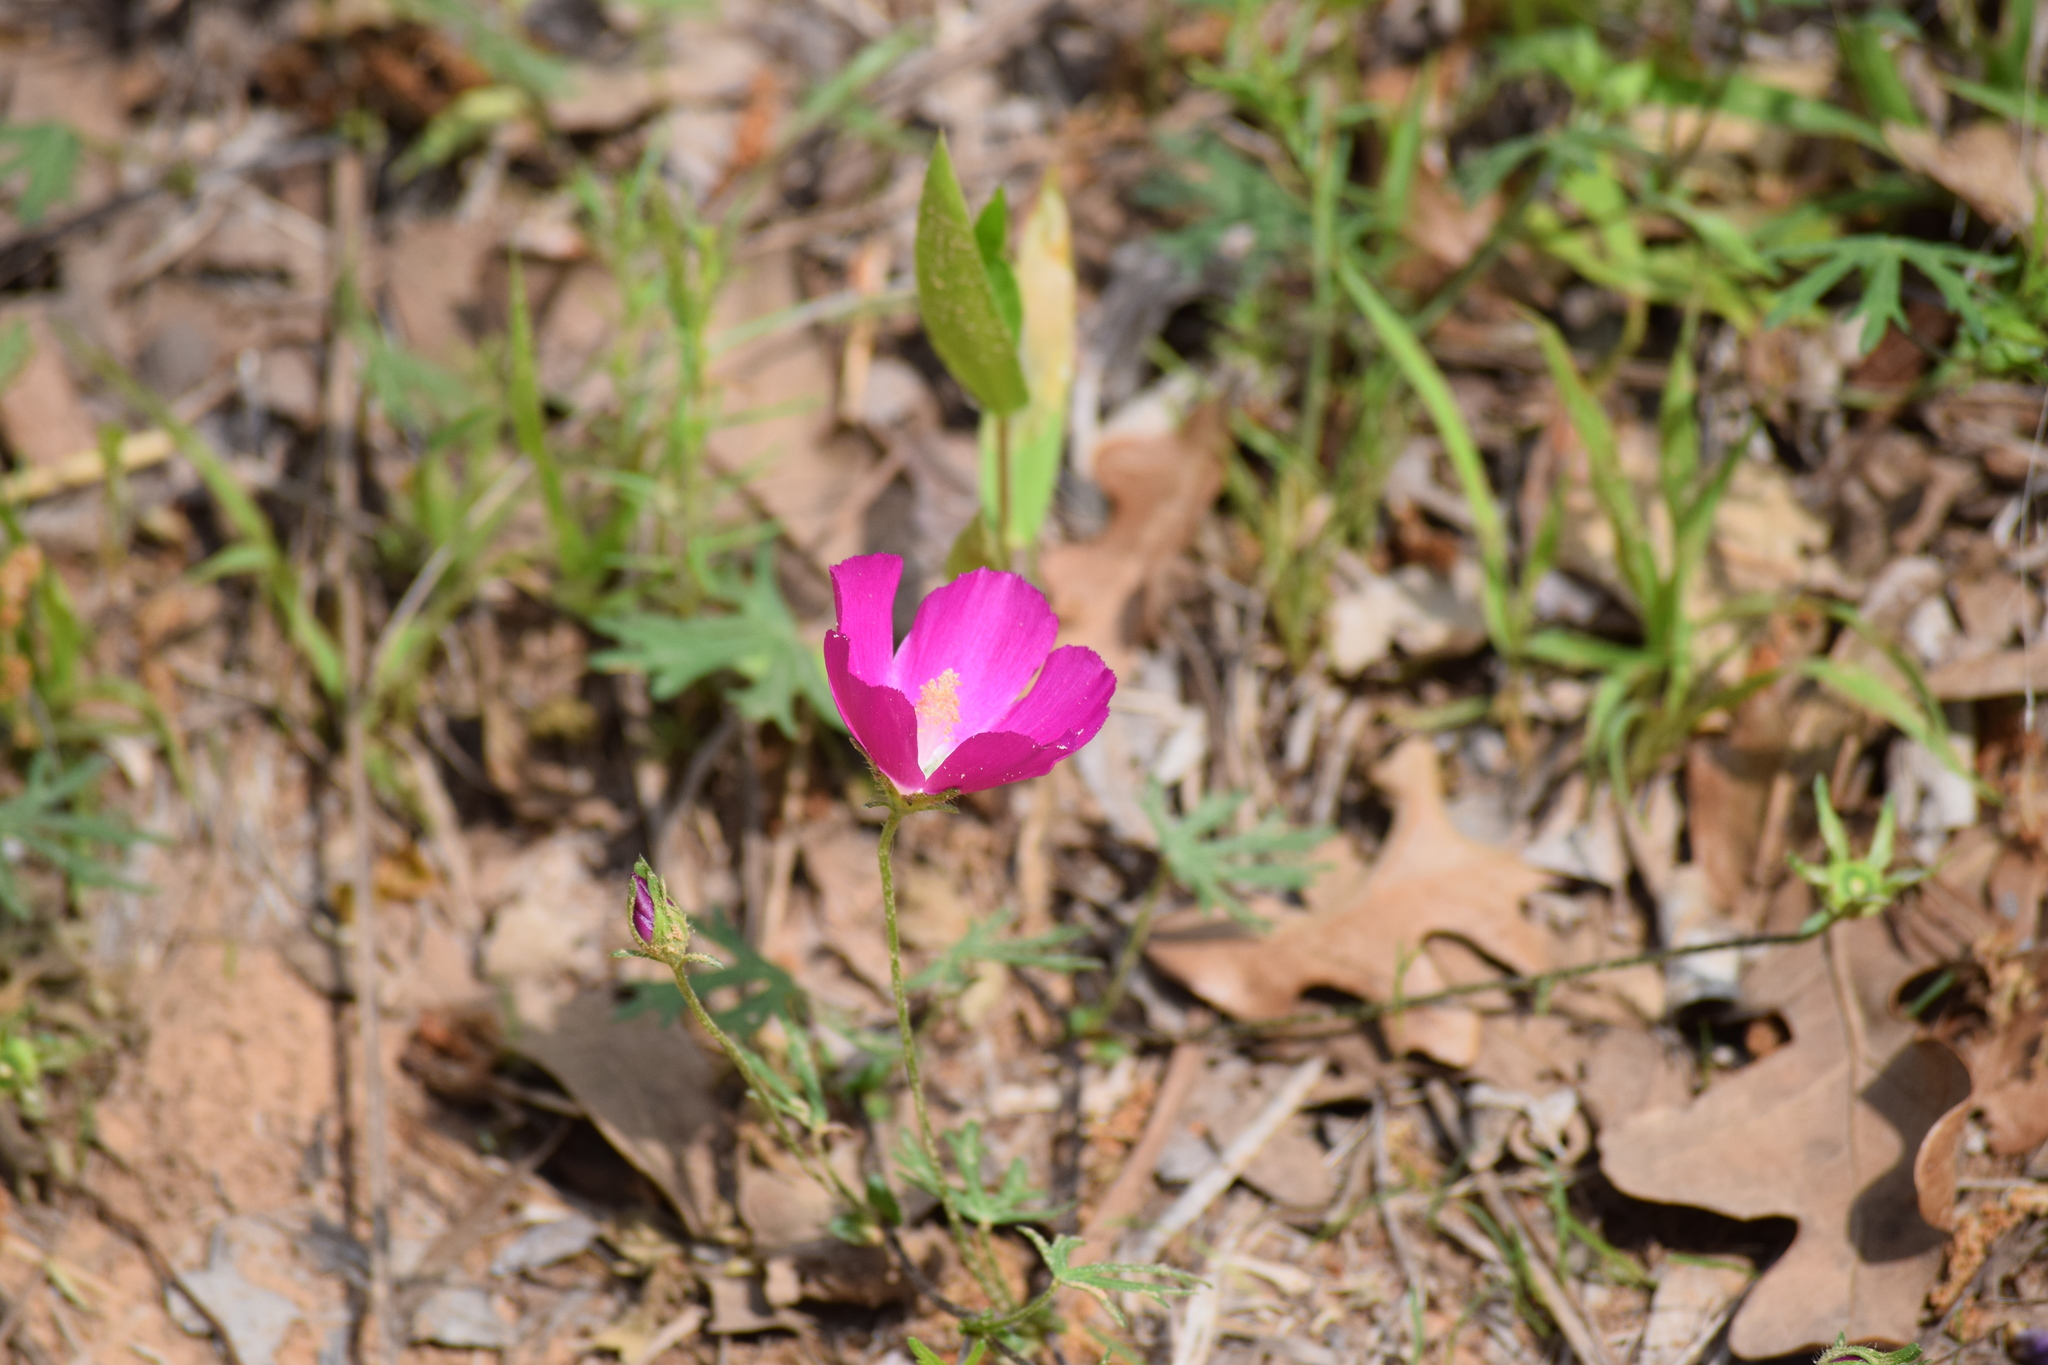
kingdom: Plantae
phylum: Tracheophyta
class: Magnoliopsida
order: Malvales
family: Malvaceae
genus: Callirhoe
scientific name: Callirhoe involucrata
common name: Purple poppy-mallow
